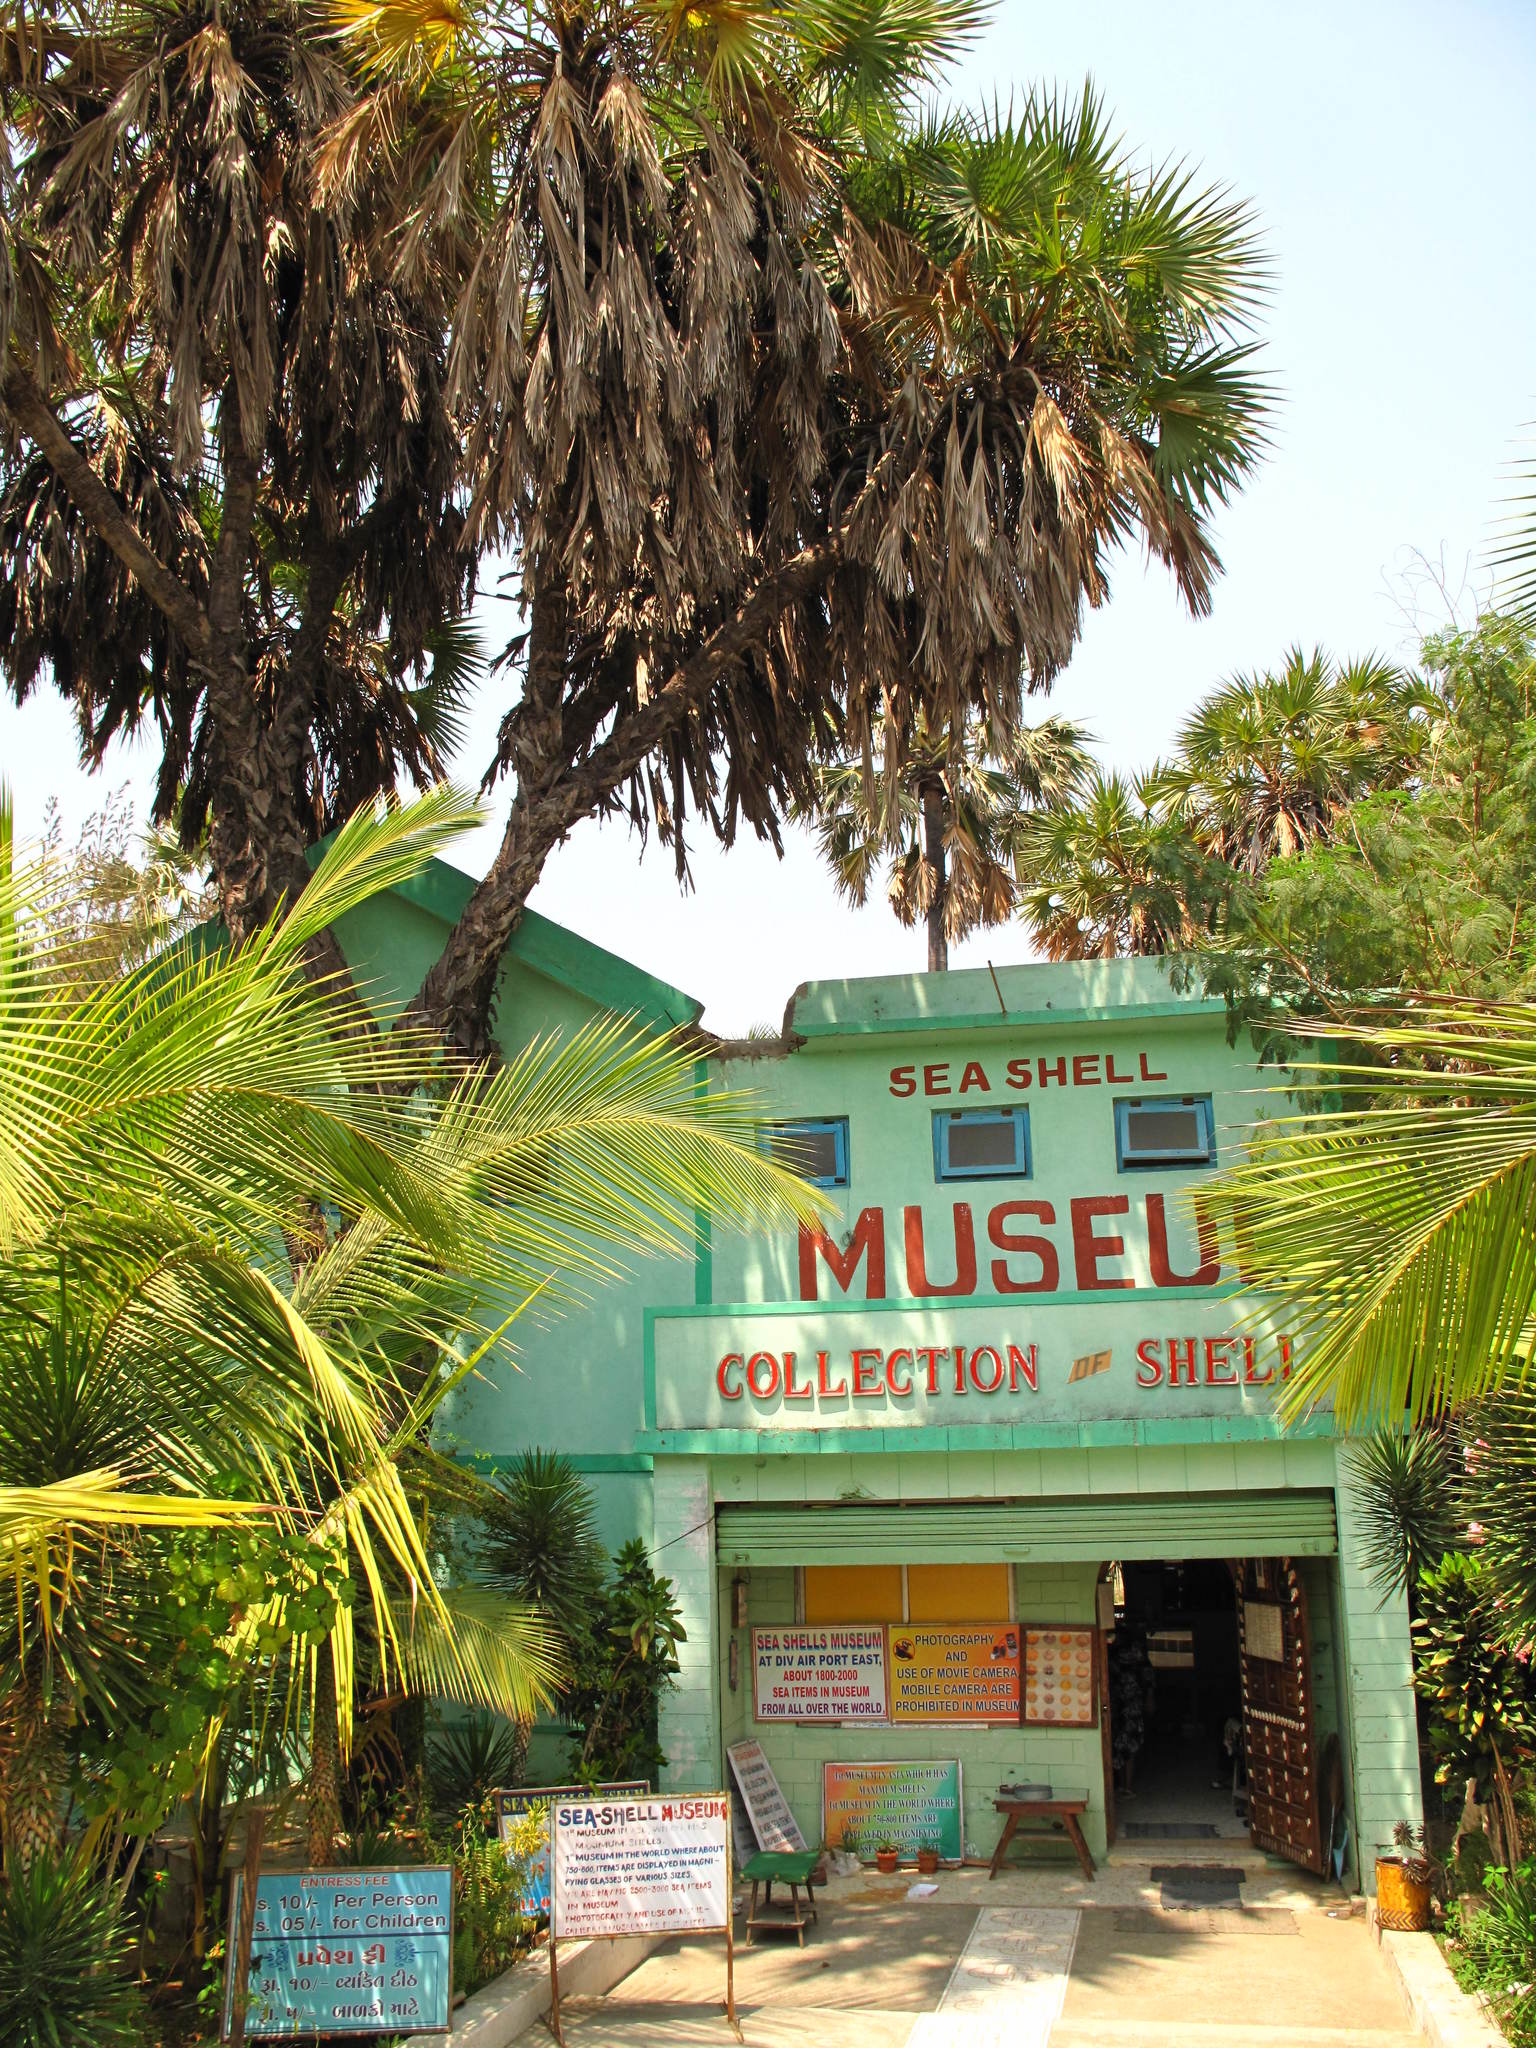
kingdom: Plantae
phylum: Tracheophyta
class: Liliopsida
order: Arecales
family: Arecaceae
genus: Hyphaene
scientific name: Hyphaene dichotoma
